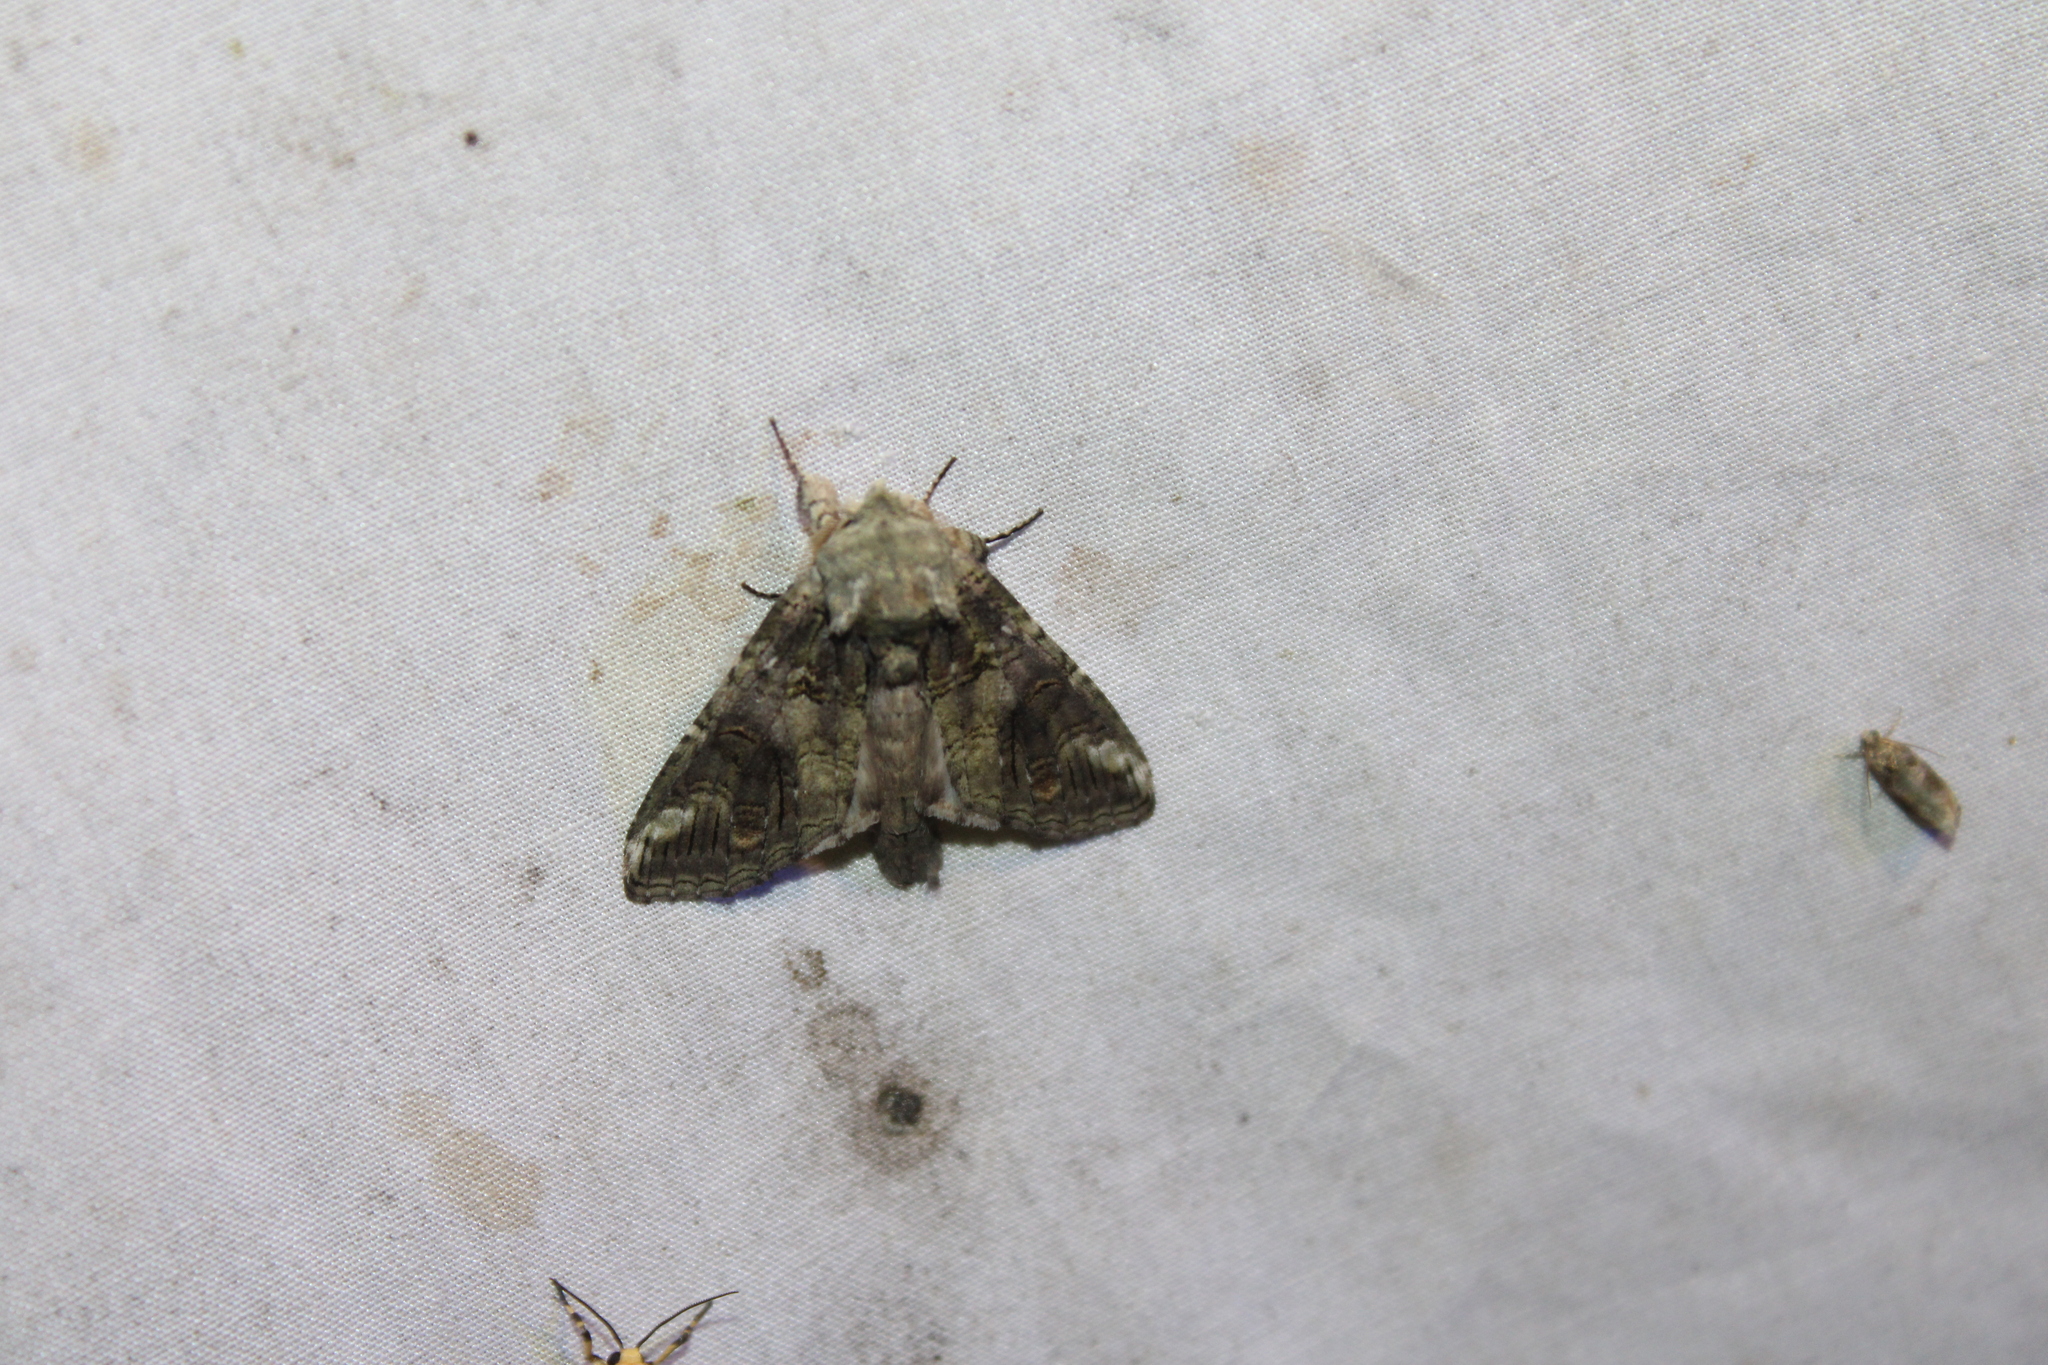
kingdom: Animalia
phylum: Arthropoda
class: Insecta
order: Lepidoptera
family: Notodontidae
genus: Heterocampa
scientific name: Heterocampa obliqua
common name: Oblique heterocampa
